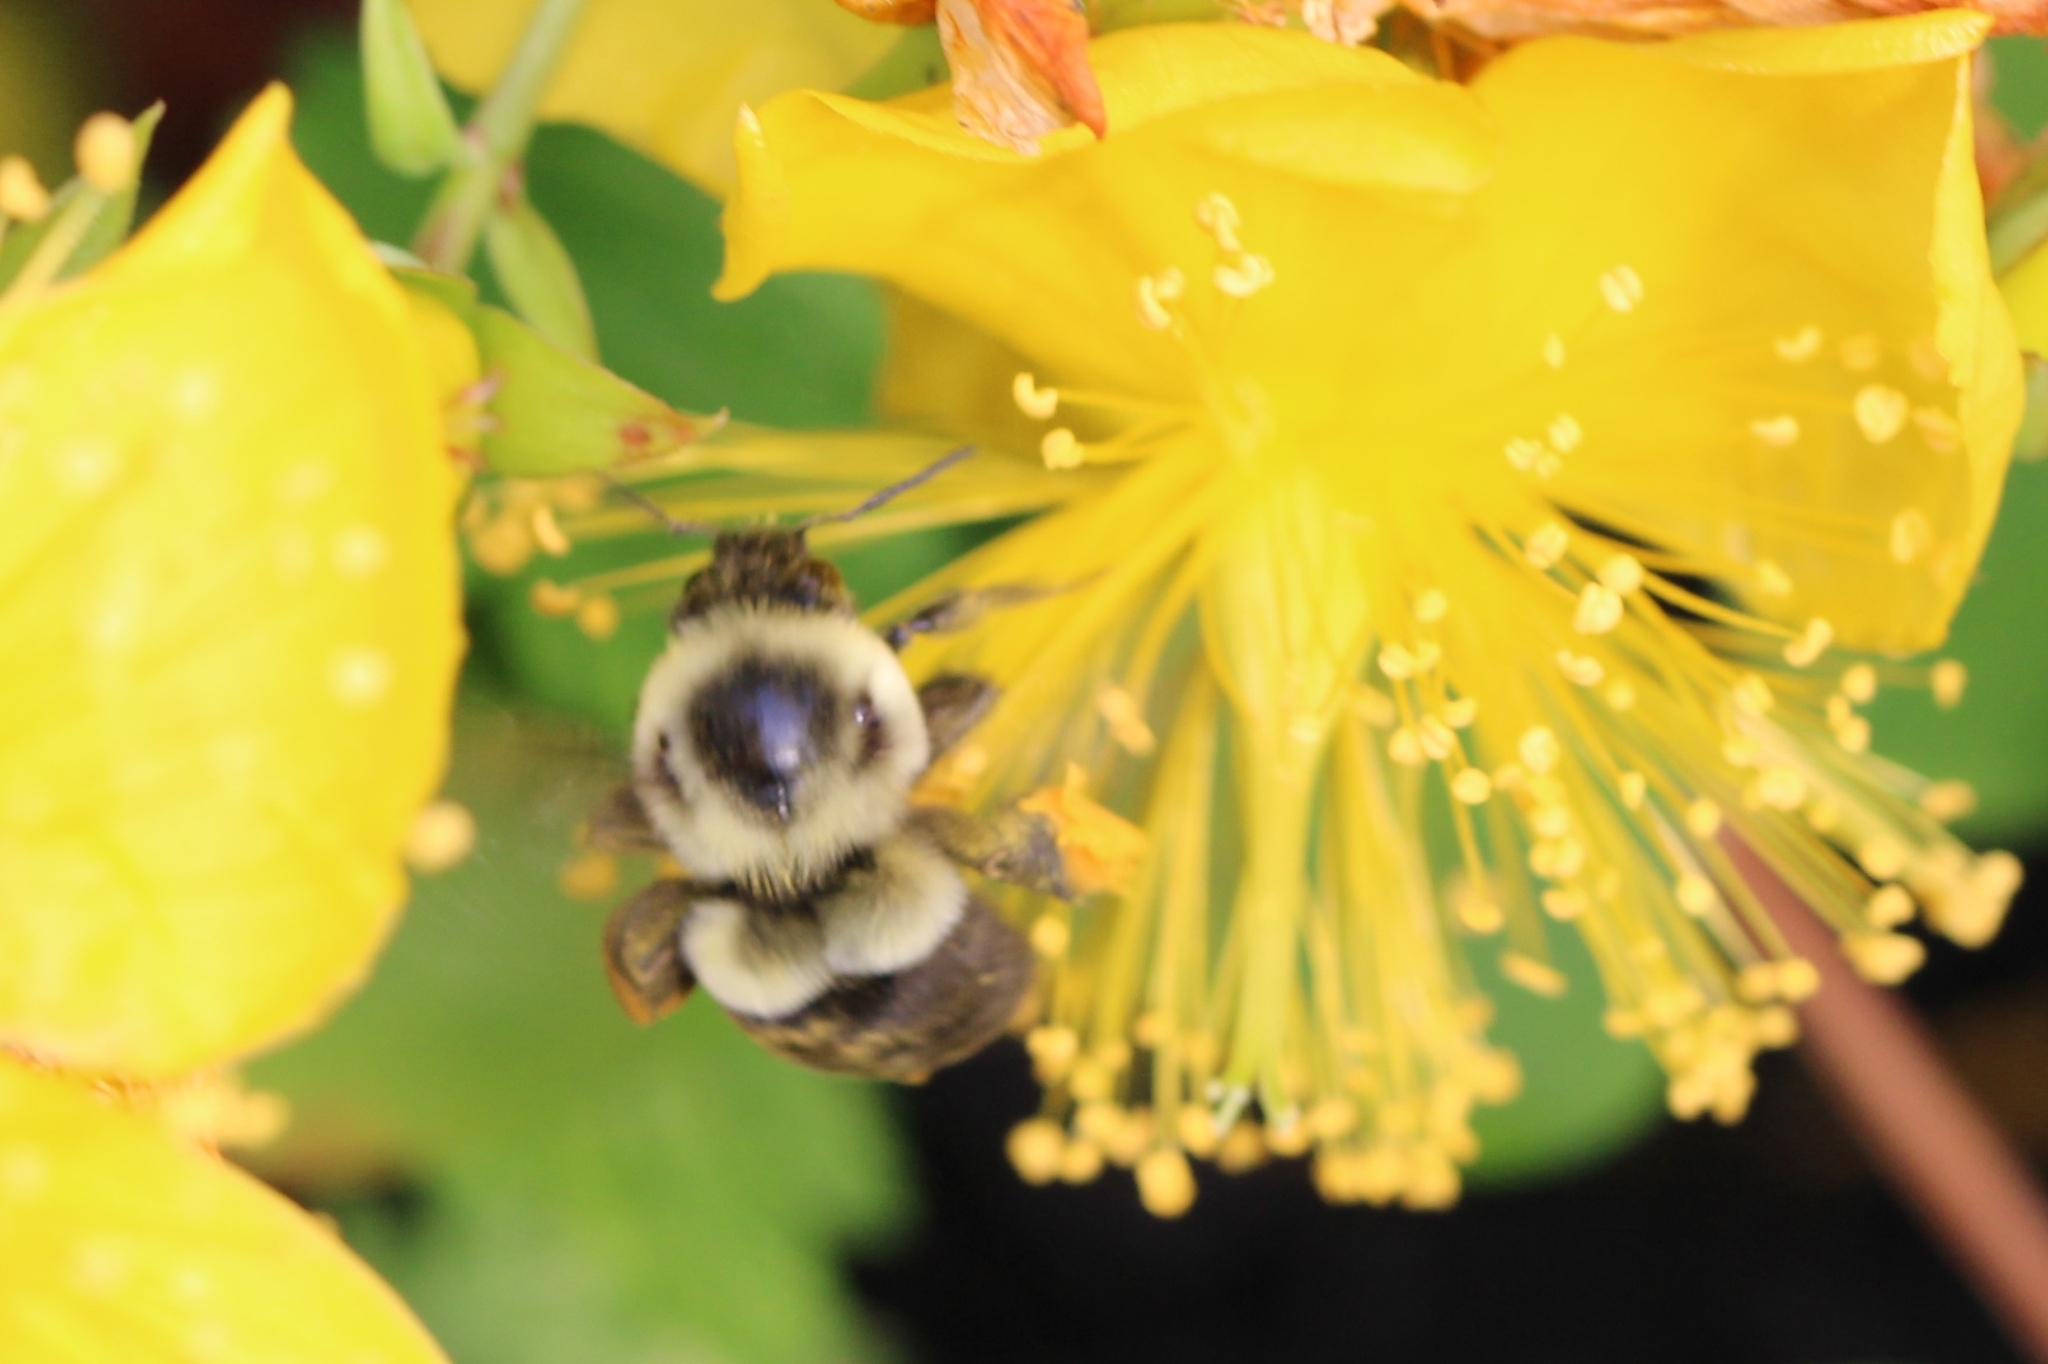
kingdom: Animalia
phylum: Arthropoda
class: Insecta
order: Hymenoptera
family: Apidae
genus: Bombus
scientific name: Bombus impatiens
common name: Common eastern bumble bee
